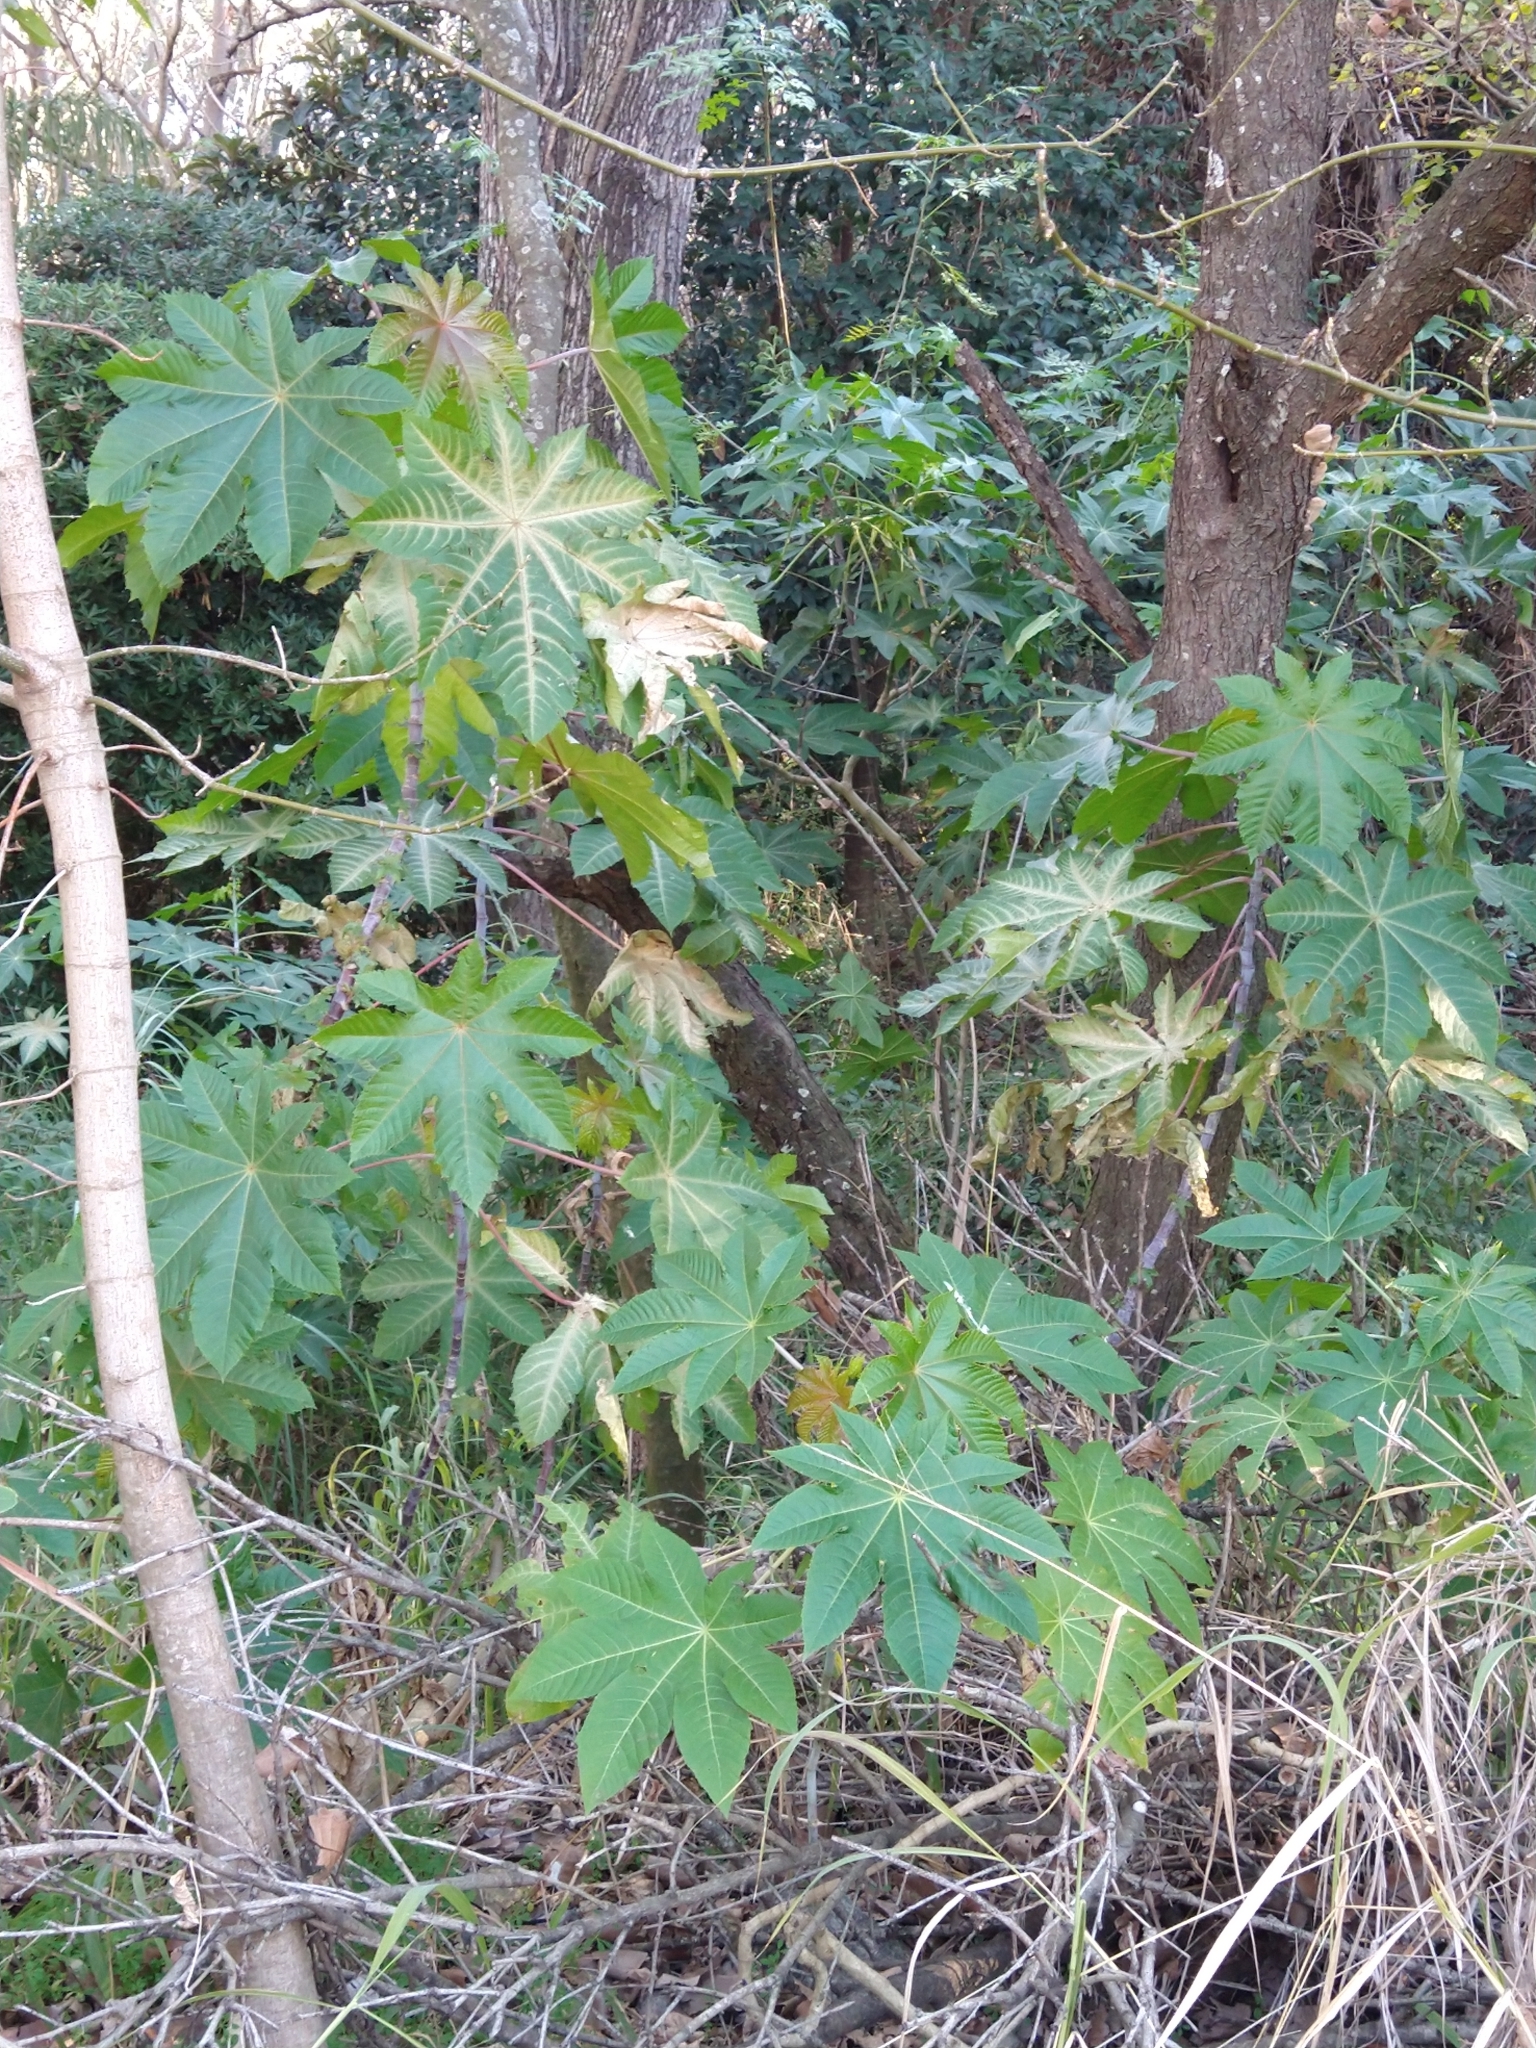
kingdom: Plantae
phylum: Tracheophyta
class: Magnoliopsida
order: Malpighiales
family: Euphorbiaceae
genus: Ricinus
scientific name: Ricinus communis
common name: Castor-oil-plant
